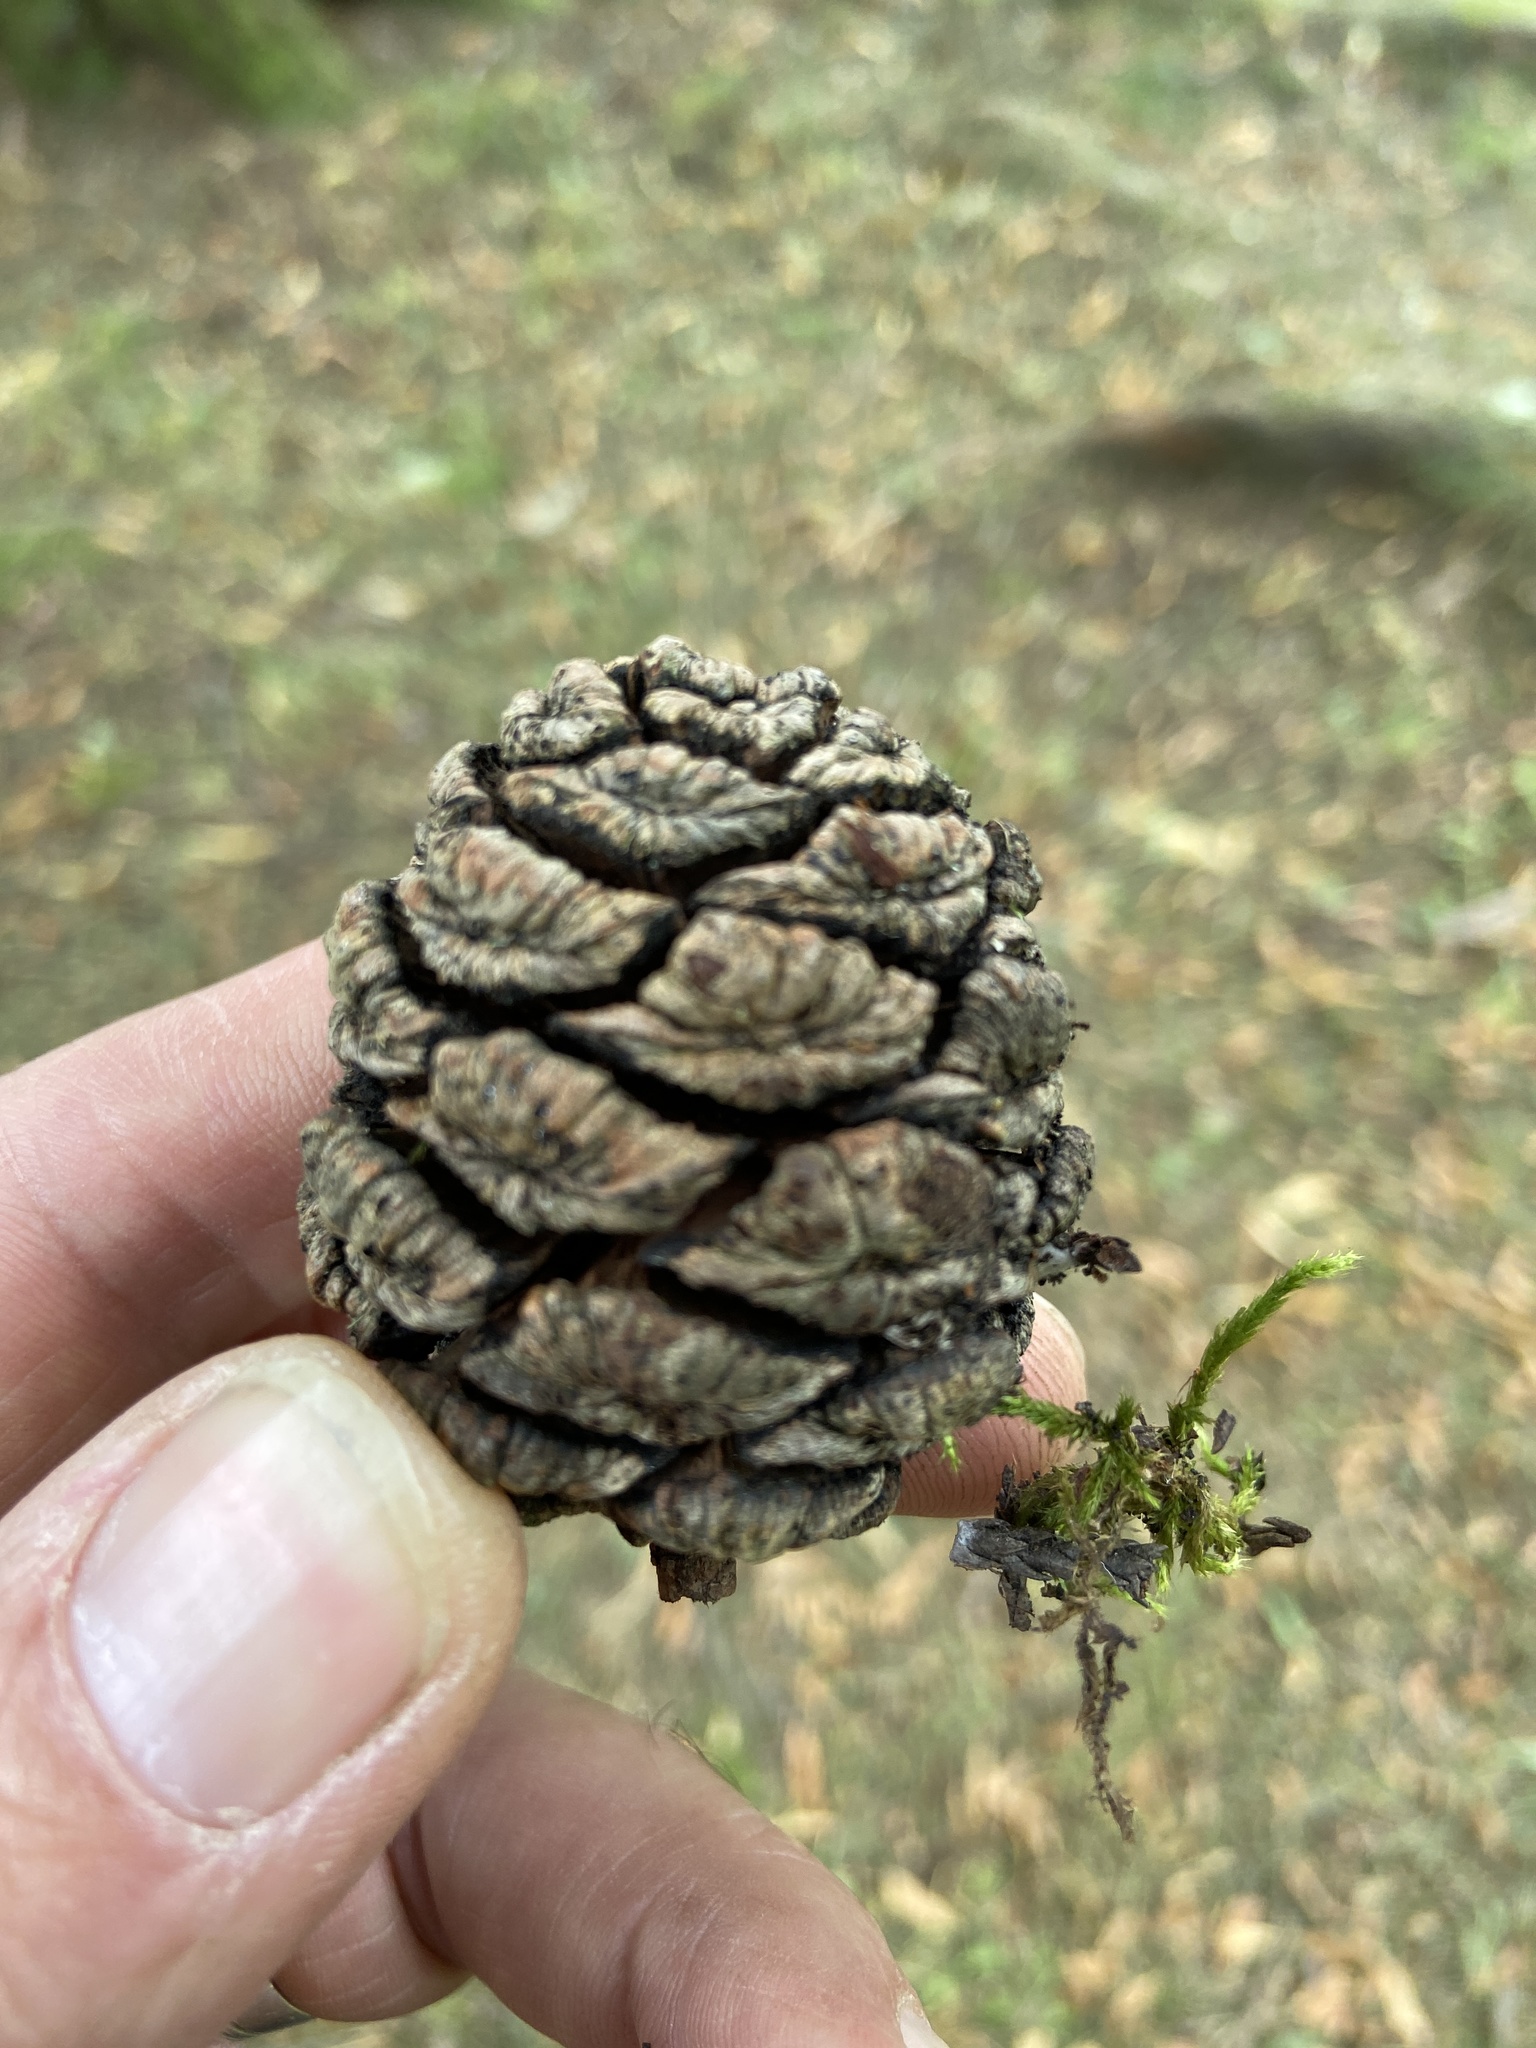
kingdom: Plantae
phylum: Tracheophyta
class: Pinopsida
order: Pinales
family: Cupressaceae
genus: Sequoiadendron
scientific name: Sequoiadendron giganteum
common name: Wellingtonia
